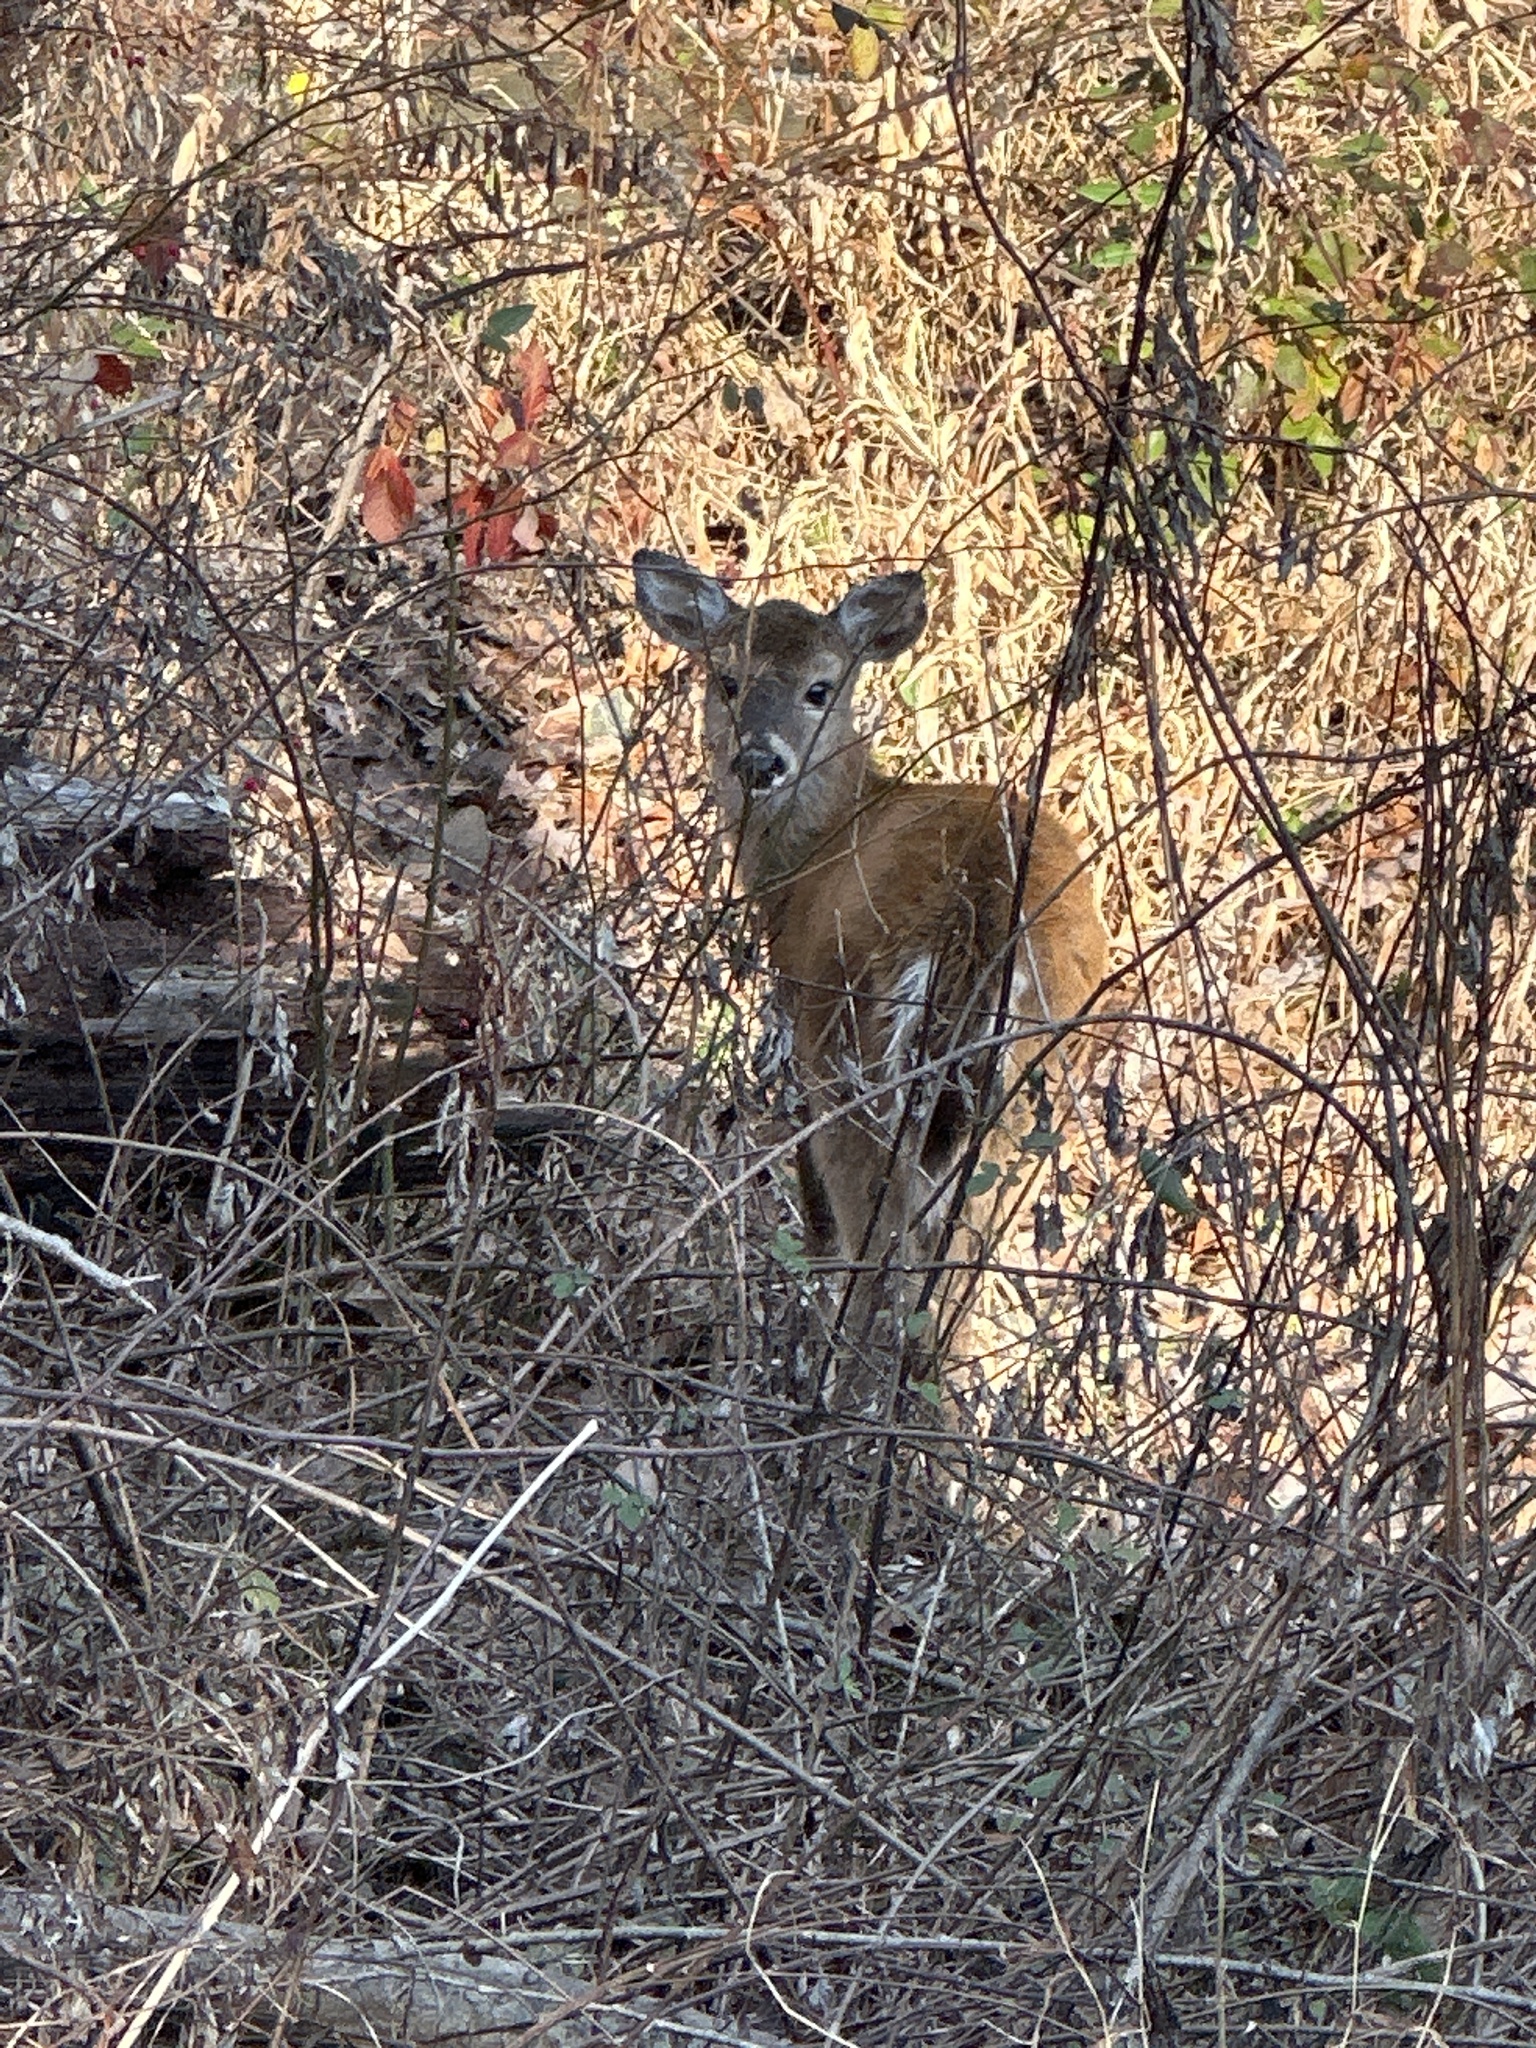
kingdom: Animalia
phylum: Chordata
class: Mammalia
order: Artiodactyla
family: Cervidae
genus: Odocoileus
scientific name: Odocoileus virginianus
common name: White-tailed deer
